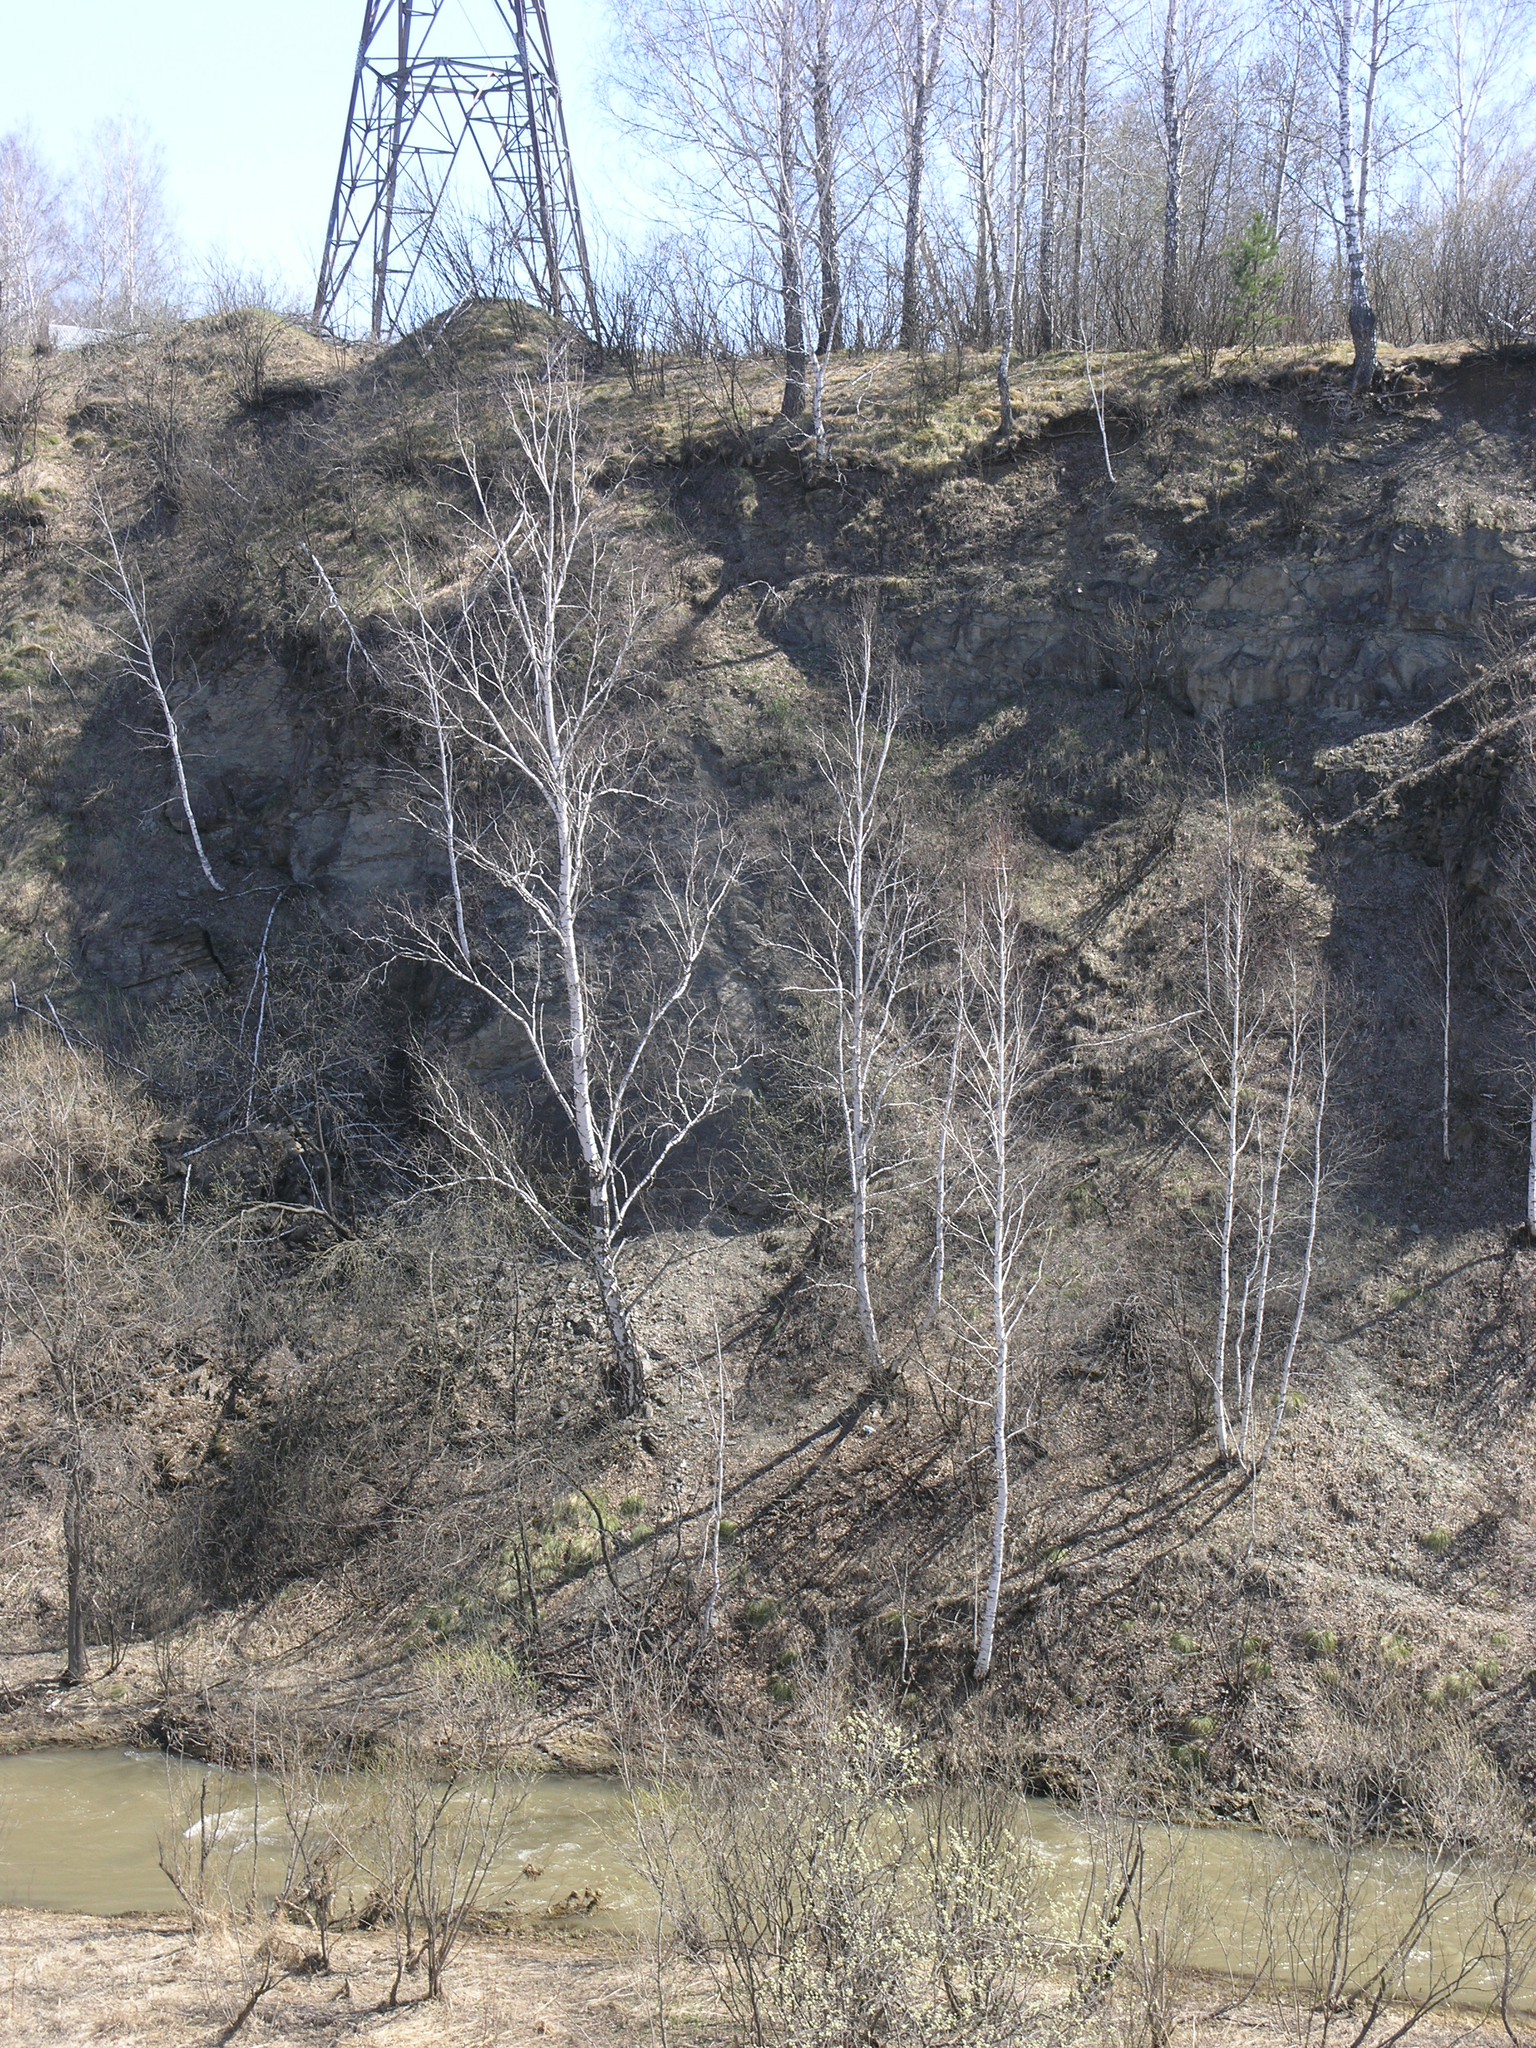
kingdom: Plantae
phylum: Tracheophyta
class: Magnoliopsida
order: Fagales
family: Betulaceae
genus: Betula
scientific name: Betula pendula
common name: Silver birch
